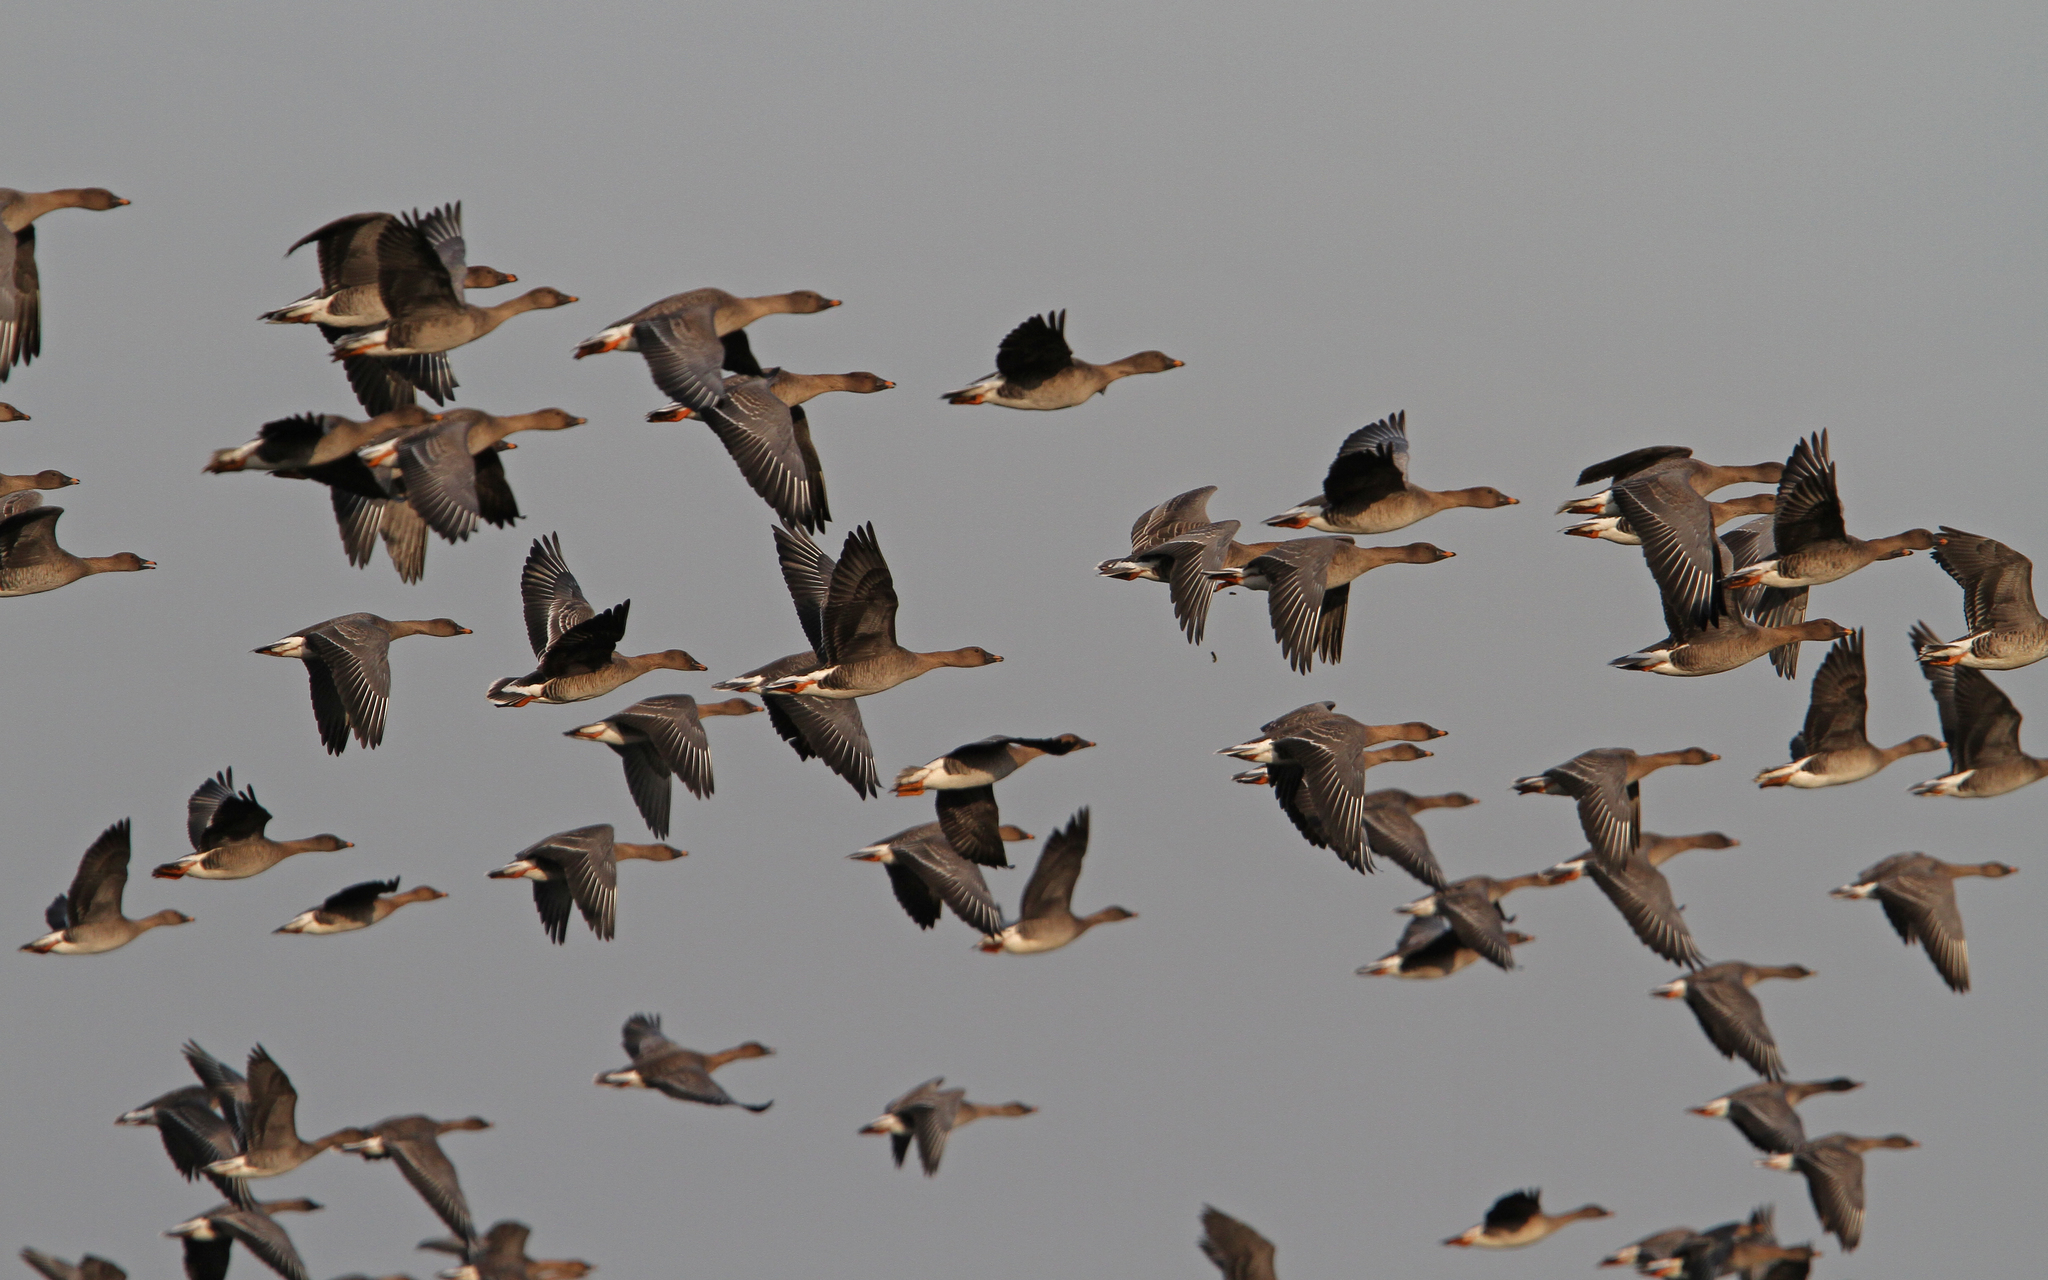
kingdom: Animalia
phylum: Chordata
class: Aves
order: Anseriformes
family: Anatidae
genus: Anser
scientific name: Anser serrirostris
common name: Tundra bean goose
